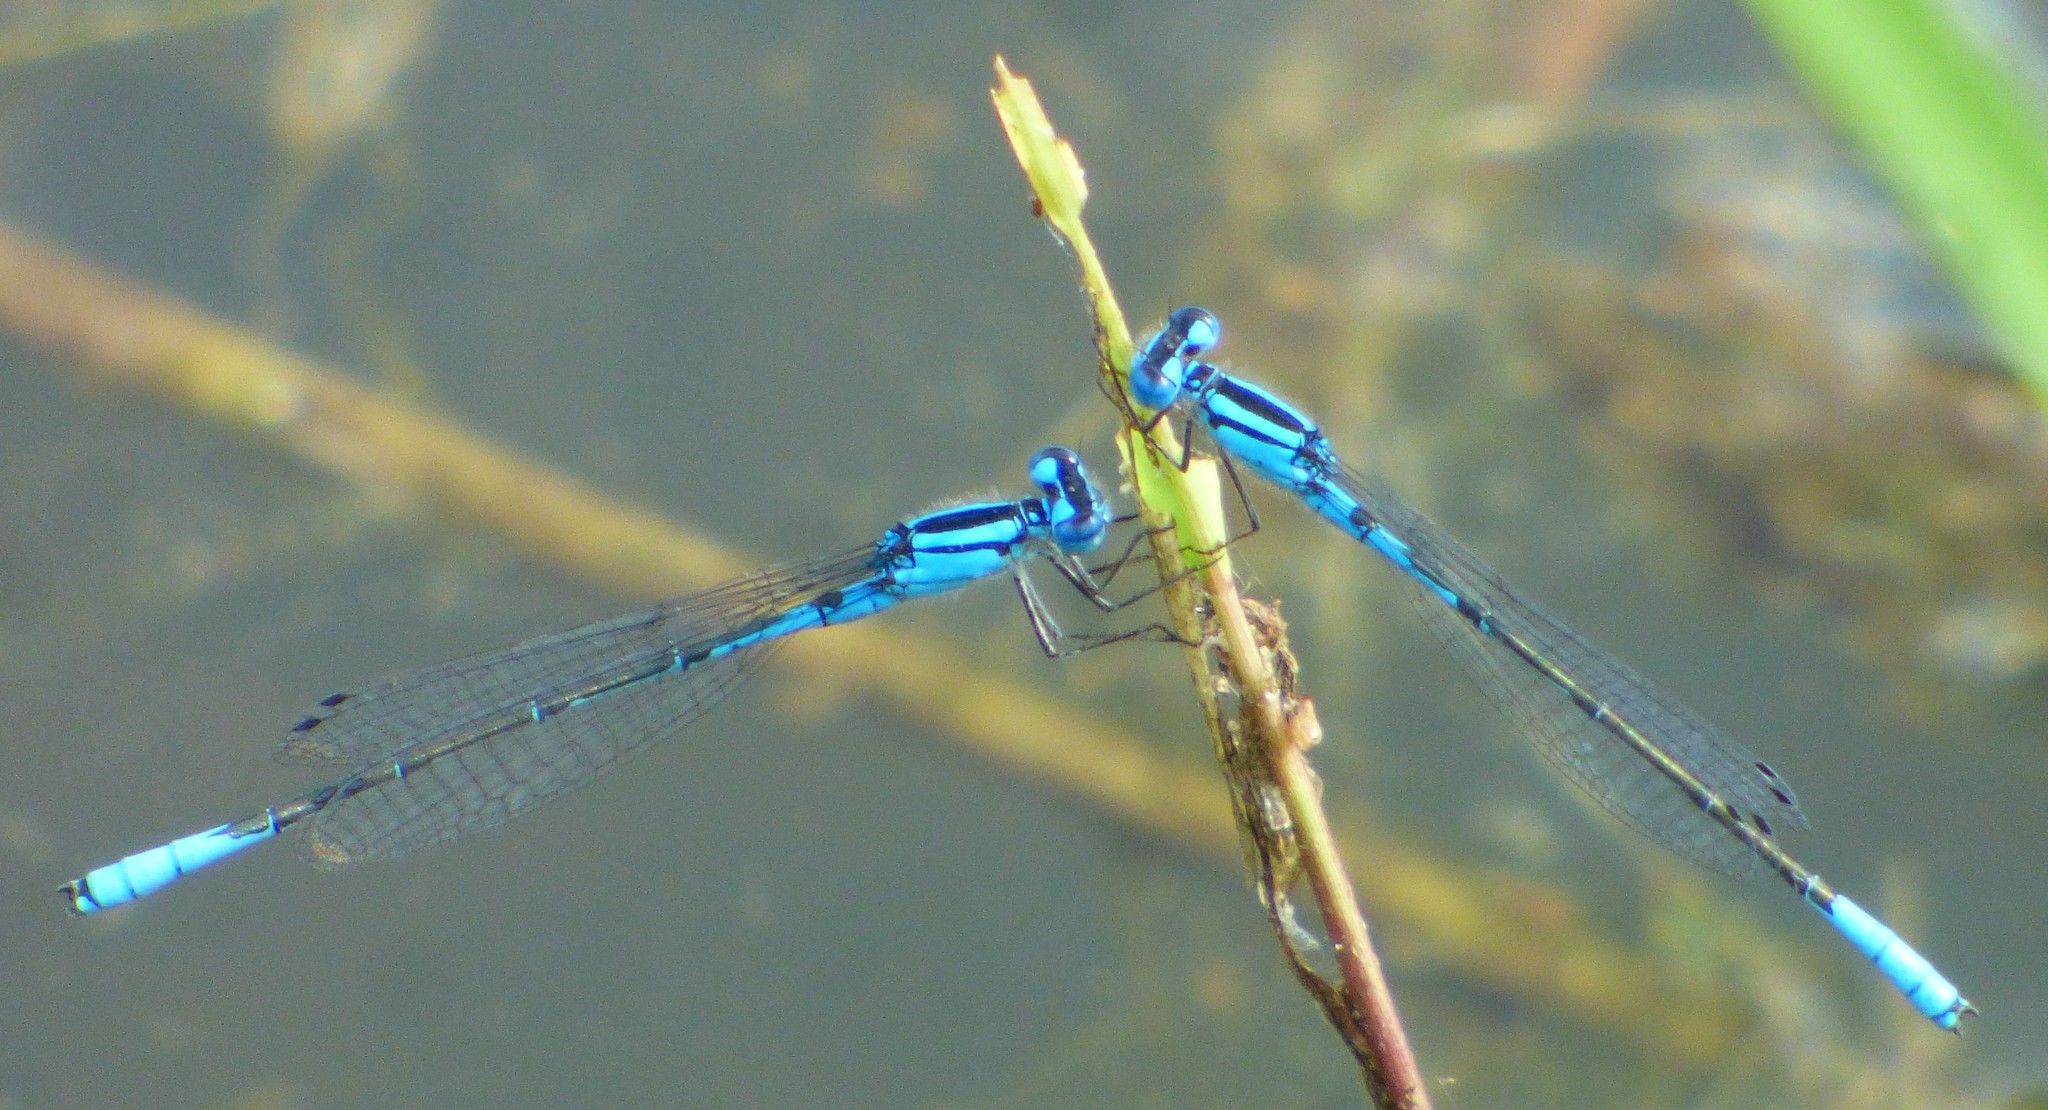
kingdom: Animalia
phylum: Arthropoda
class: Insecta
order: Odonata
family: Coenagrionidae
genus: Enallagma
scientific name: Enallagma aspersum
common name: Azure bluet
